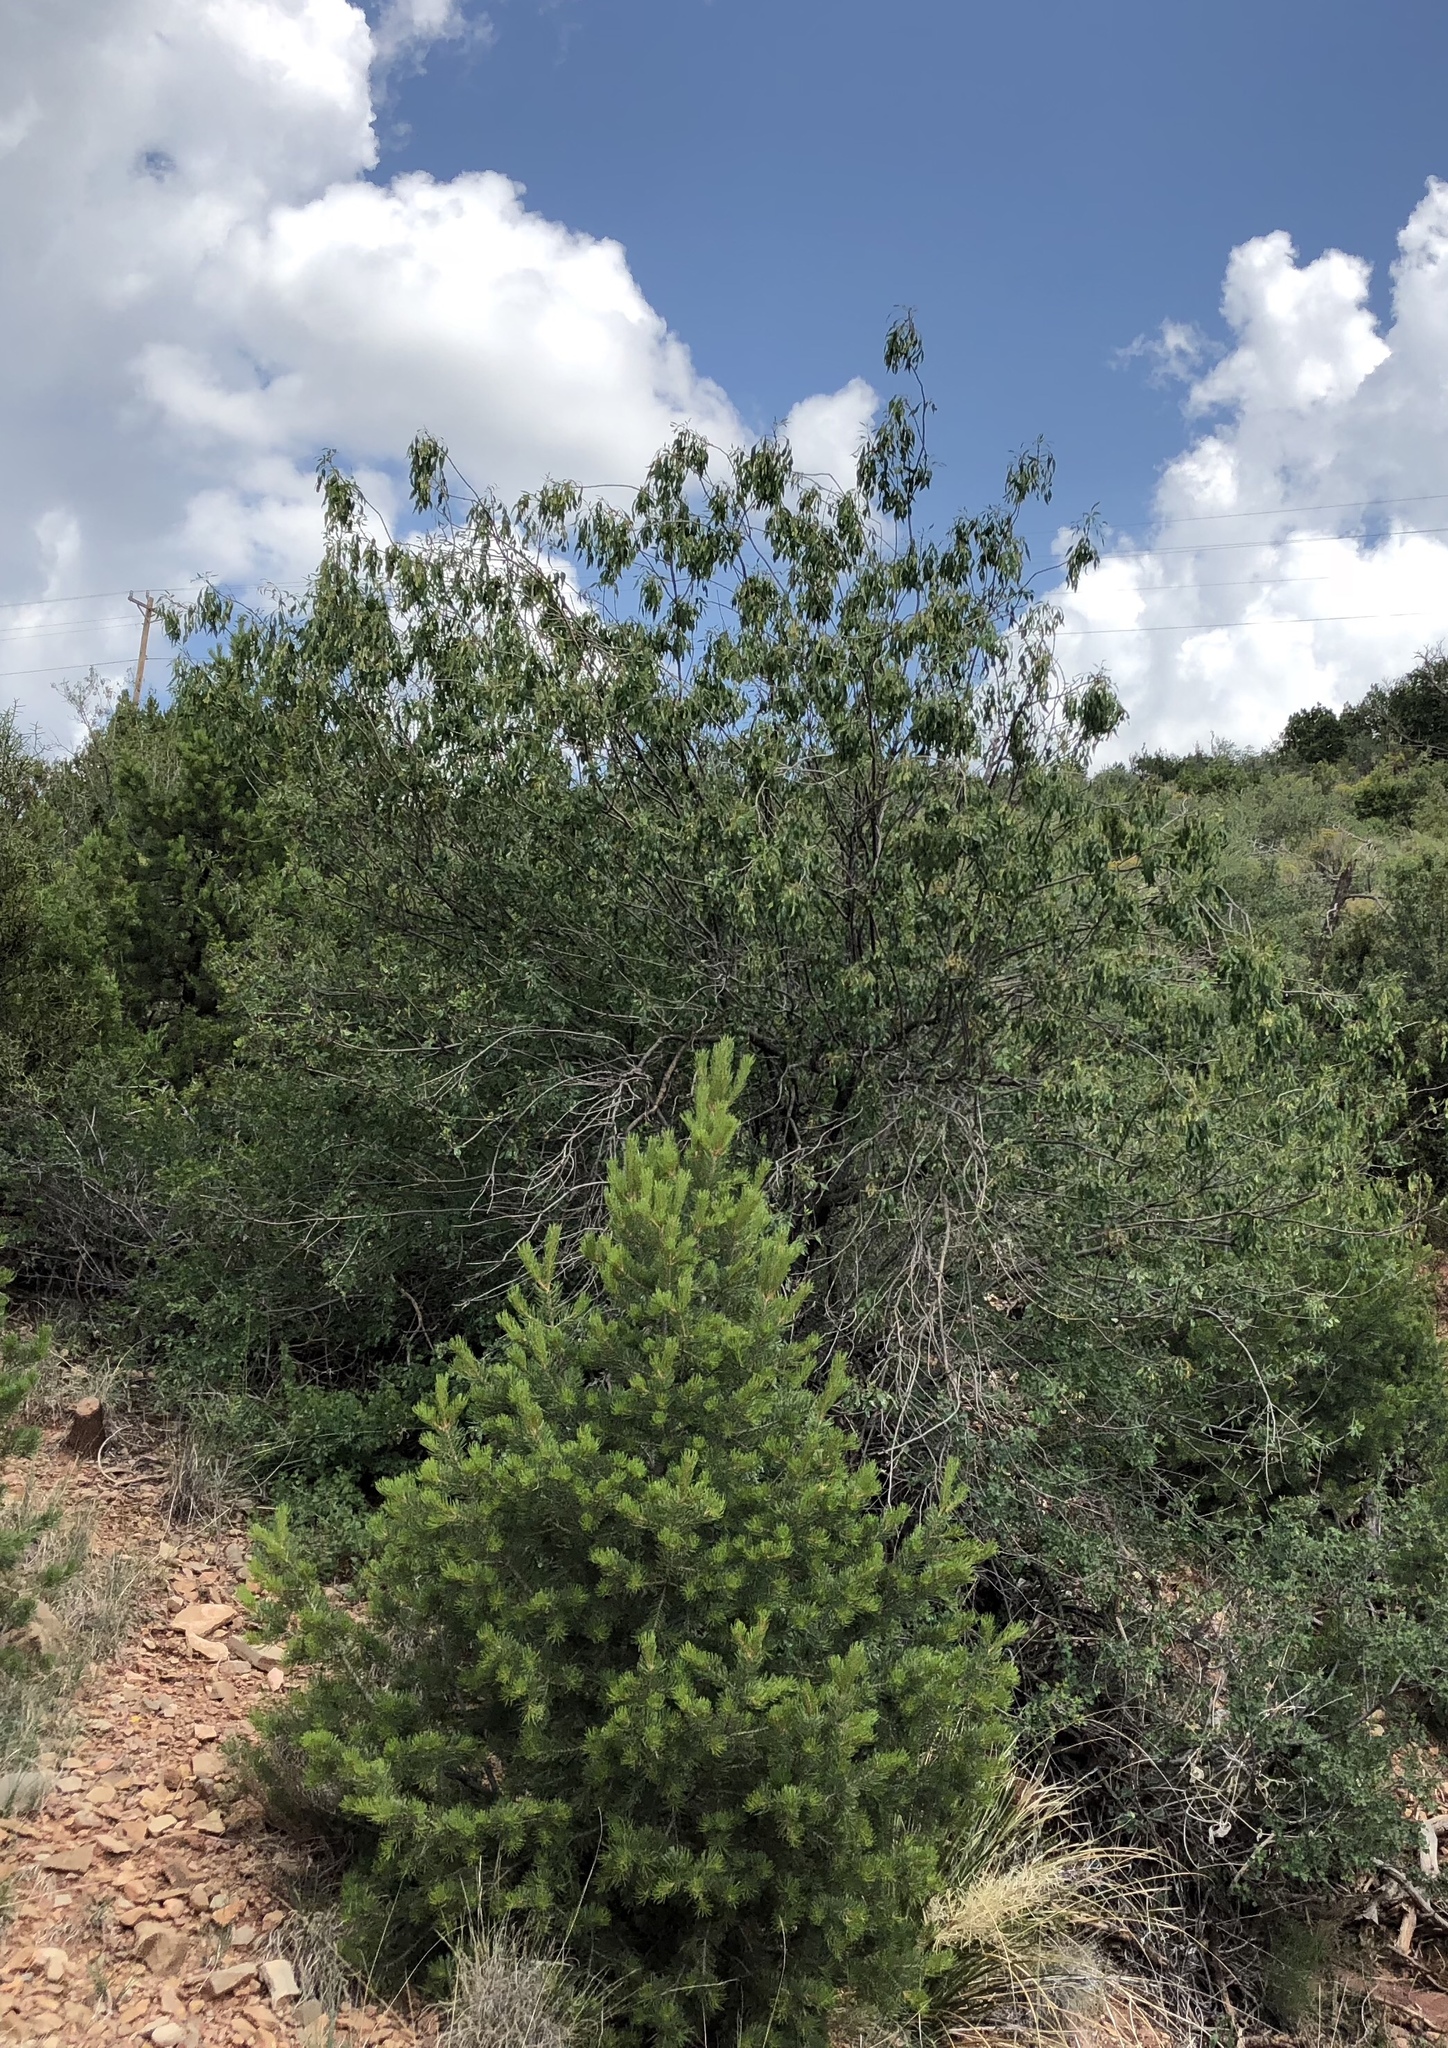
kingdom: Plantae
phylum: Tracheophyta
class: Pinopsida
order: Pinales
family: Pinaceae
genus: Pinus
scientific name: Pinus edulis
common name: Colorado pinyon
